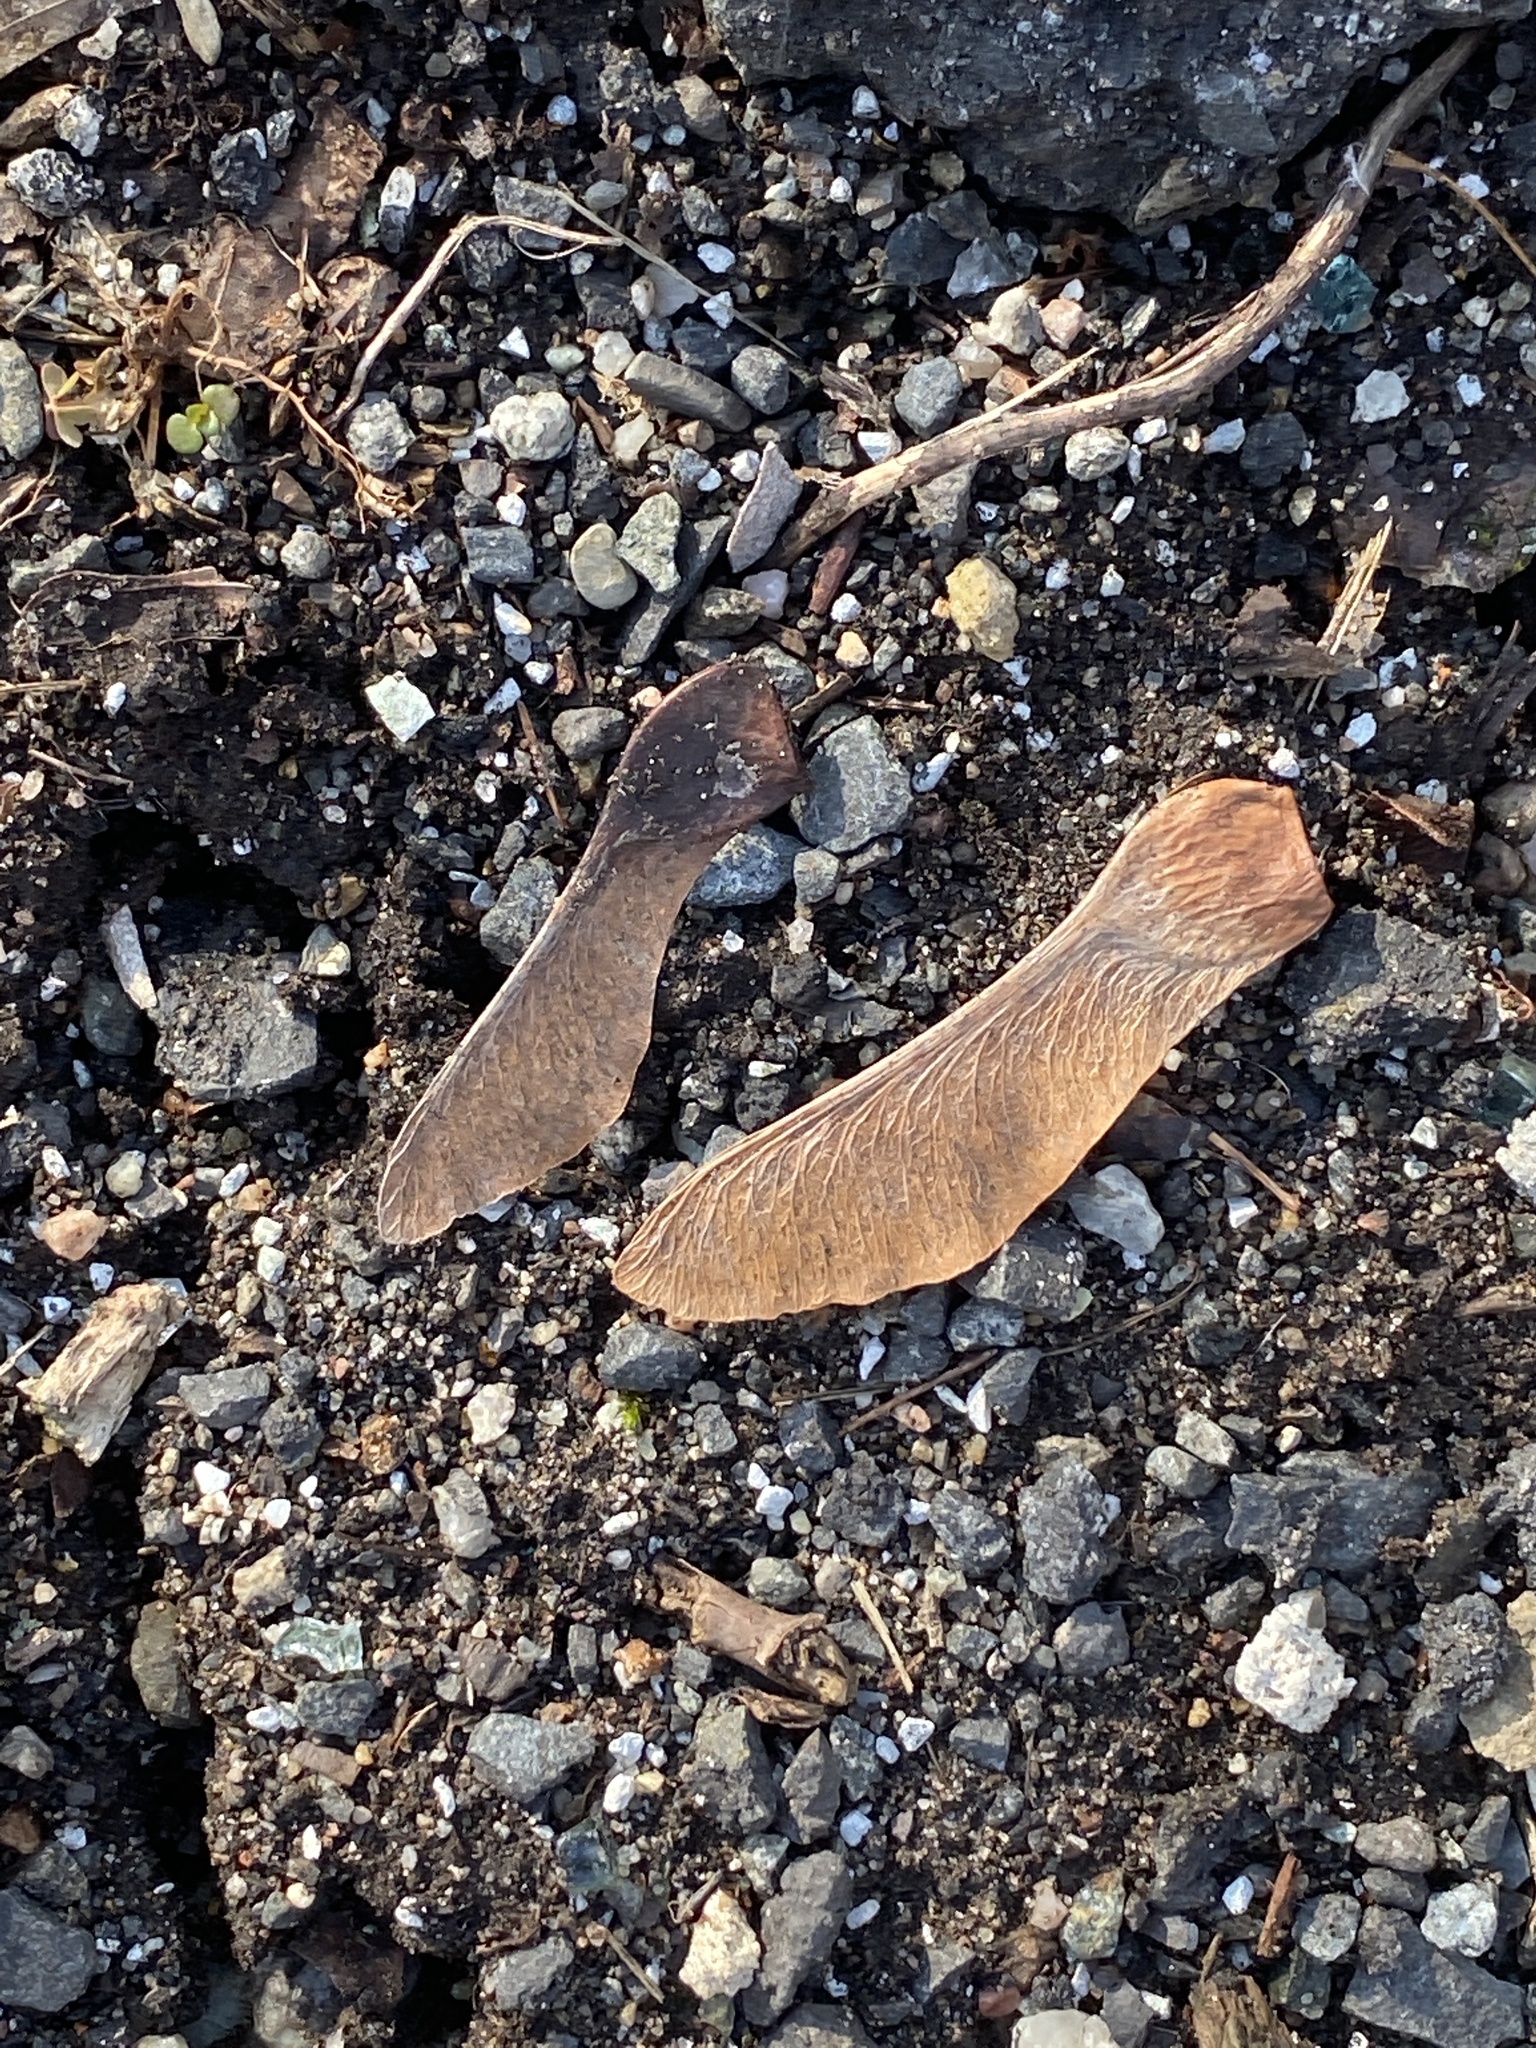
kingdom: Plantae
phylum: Tracheophyta
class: Magnoliopsida
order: Sapindales
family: Sapindaceae
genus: Acer
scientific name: Acer platanoides
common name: Norway maple
